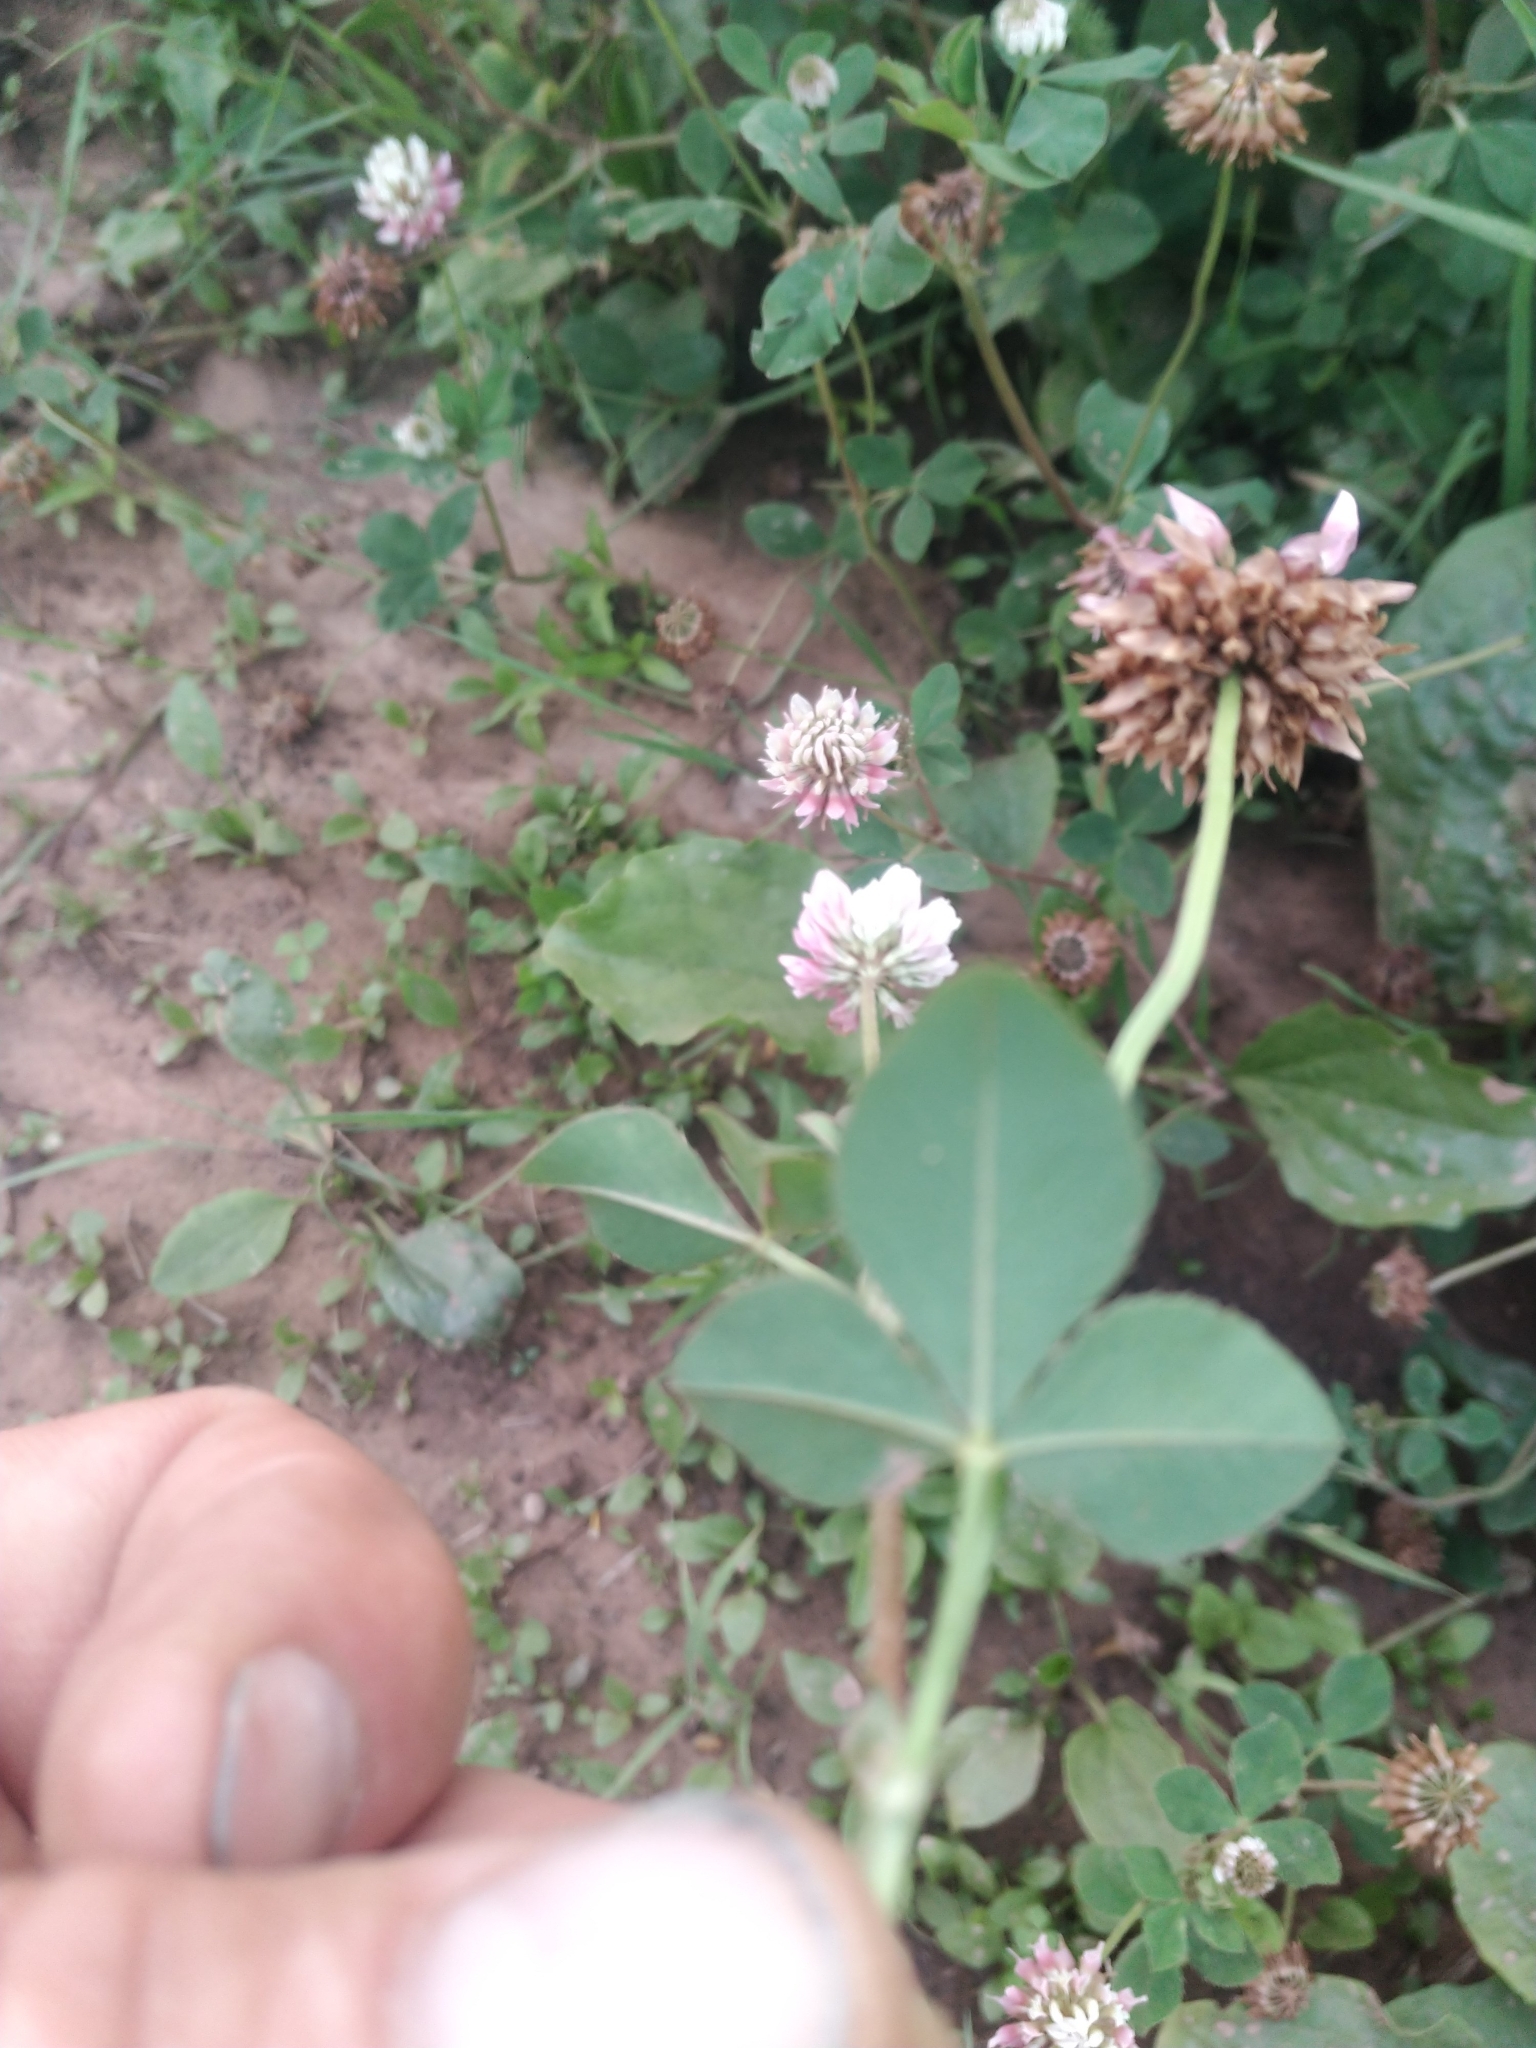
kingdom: Plantae
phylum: Tracheophyta
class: Magnoliopsida
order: Fabales
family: Fabaceae
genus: Trifolium
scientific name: Trifolium hybridum
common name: Alsike clover
